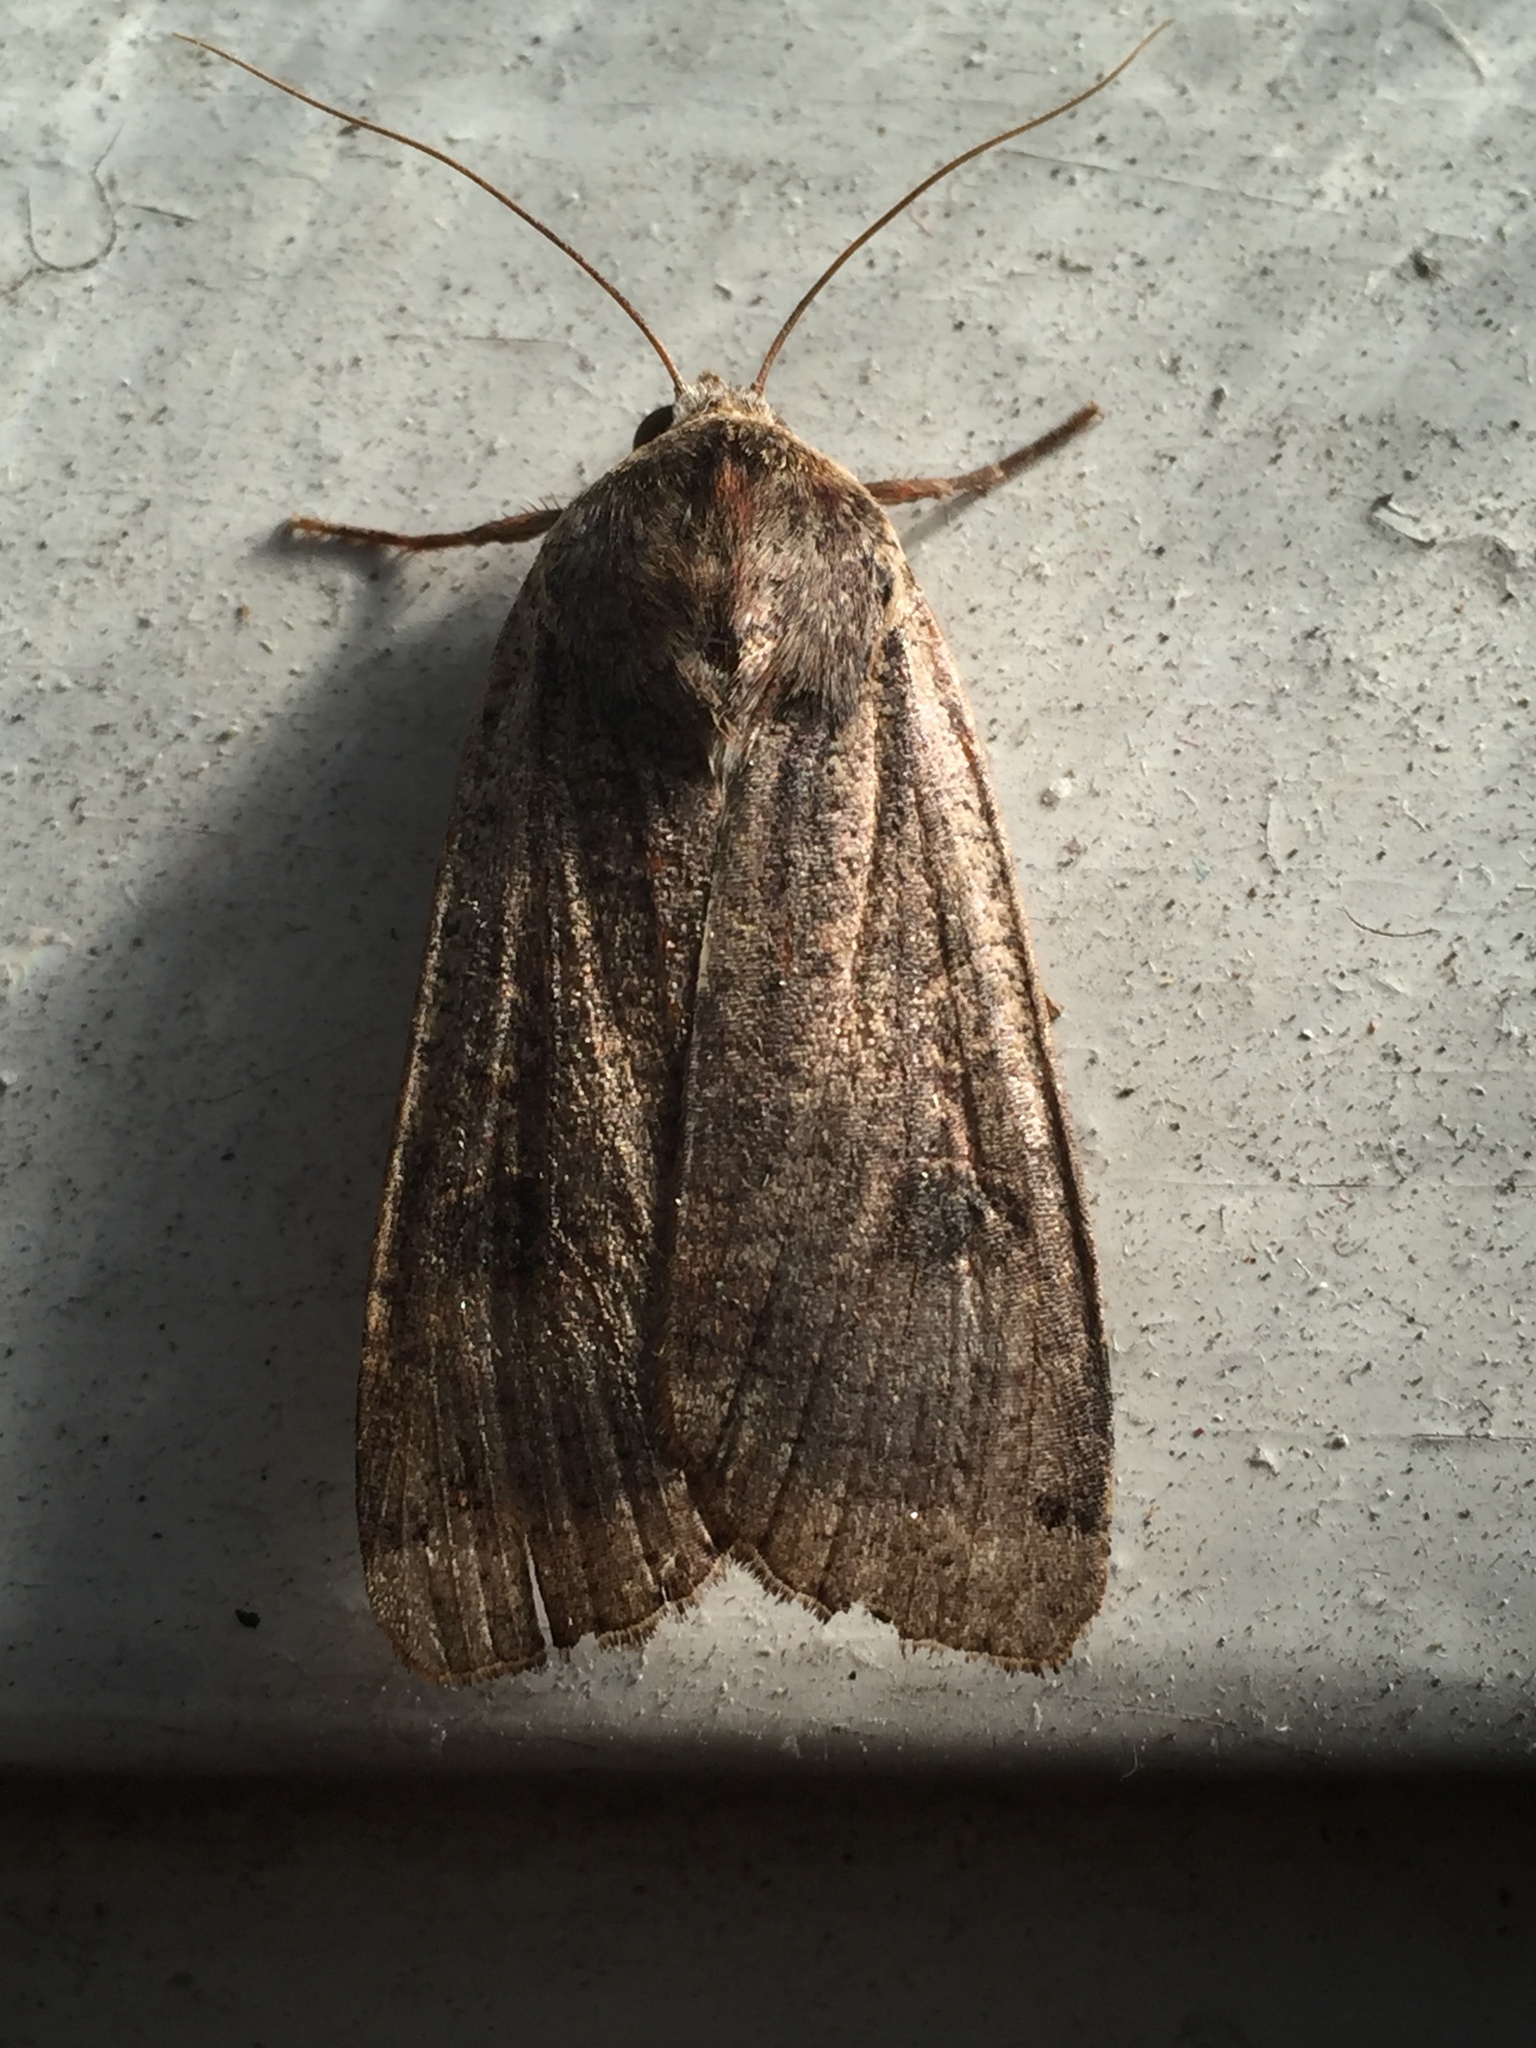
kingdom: Animalia
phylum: Arthropoda
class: Insecta
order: Lepidoptera
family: Noctuidae
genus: Noctua
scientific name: Noctua pronuba
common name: Large yellow underwing
